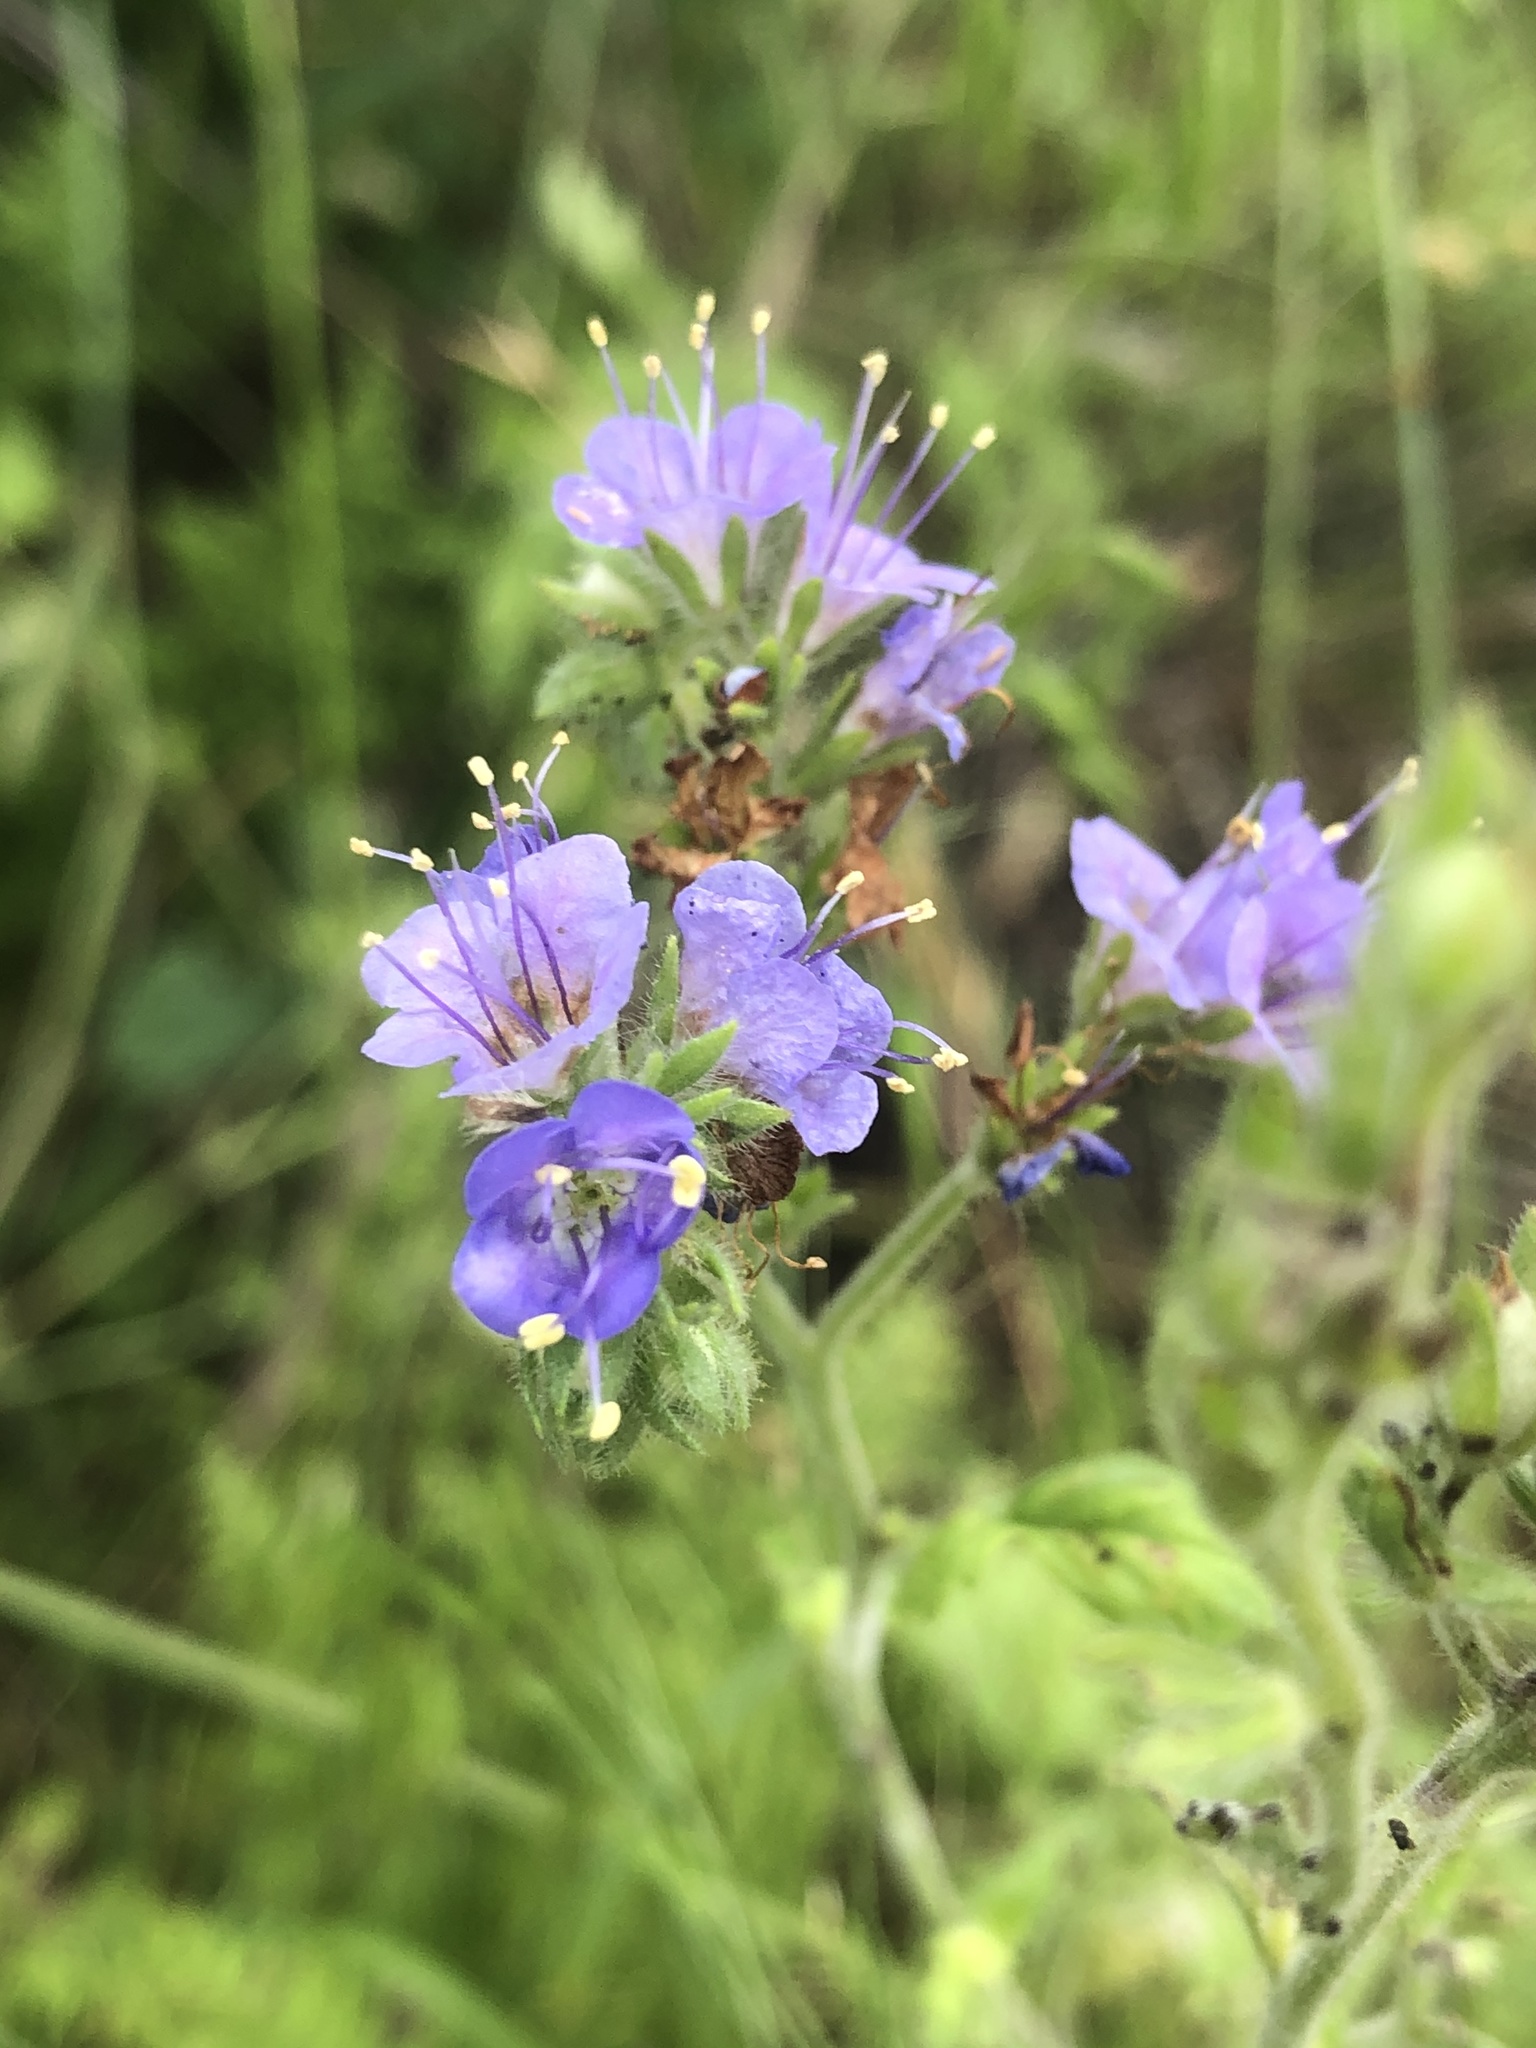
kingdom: Plantae
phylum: Tracheophyta
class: Magnoliopsida
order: Boraginales
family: Hydrophyllaceae
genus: Phacelia
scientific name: Phacelia congesta
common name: Blue curls
